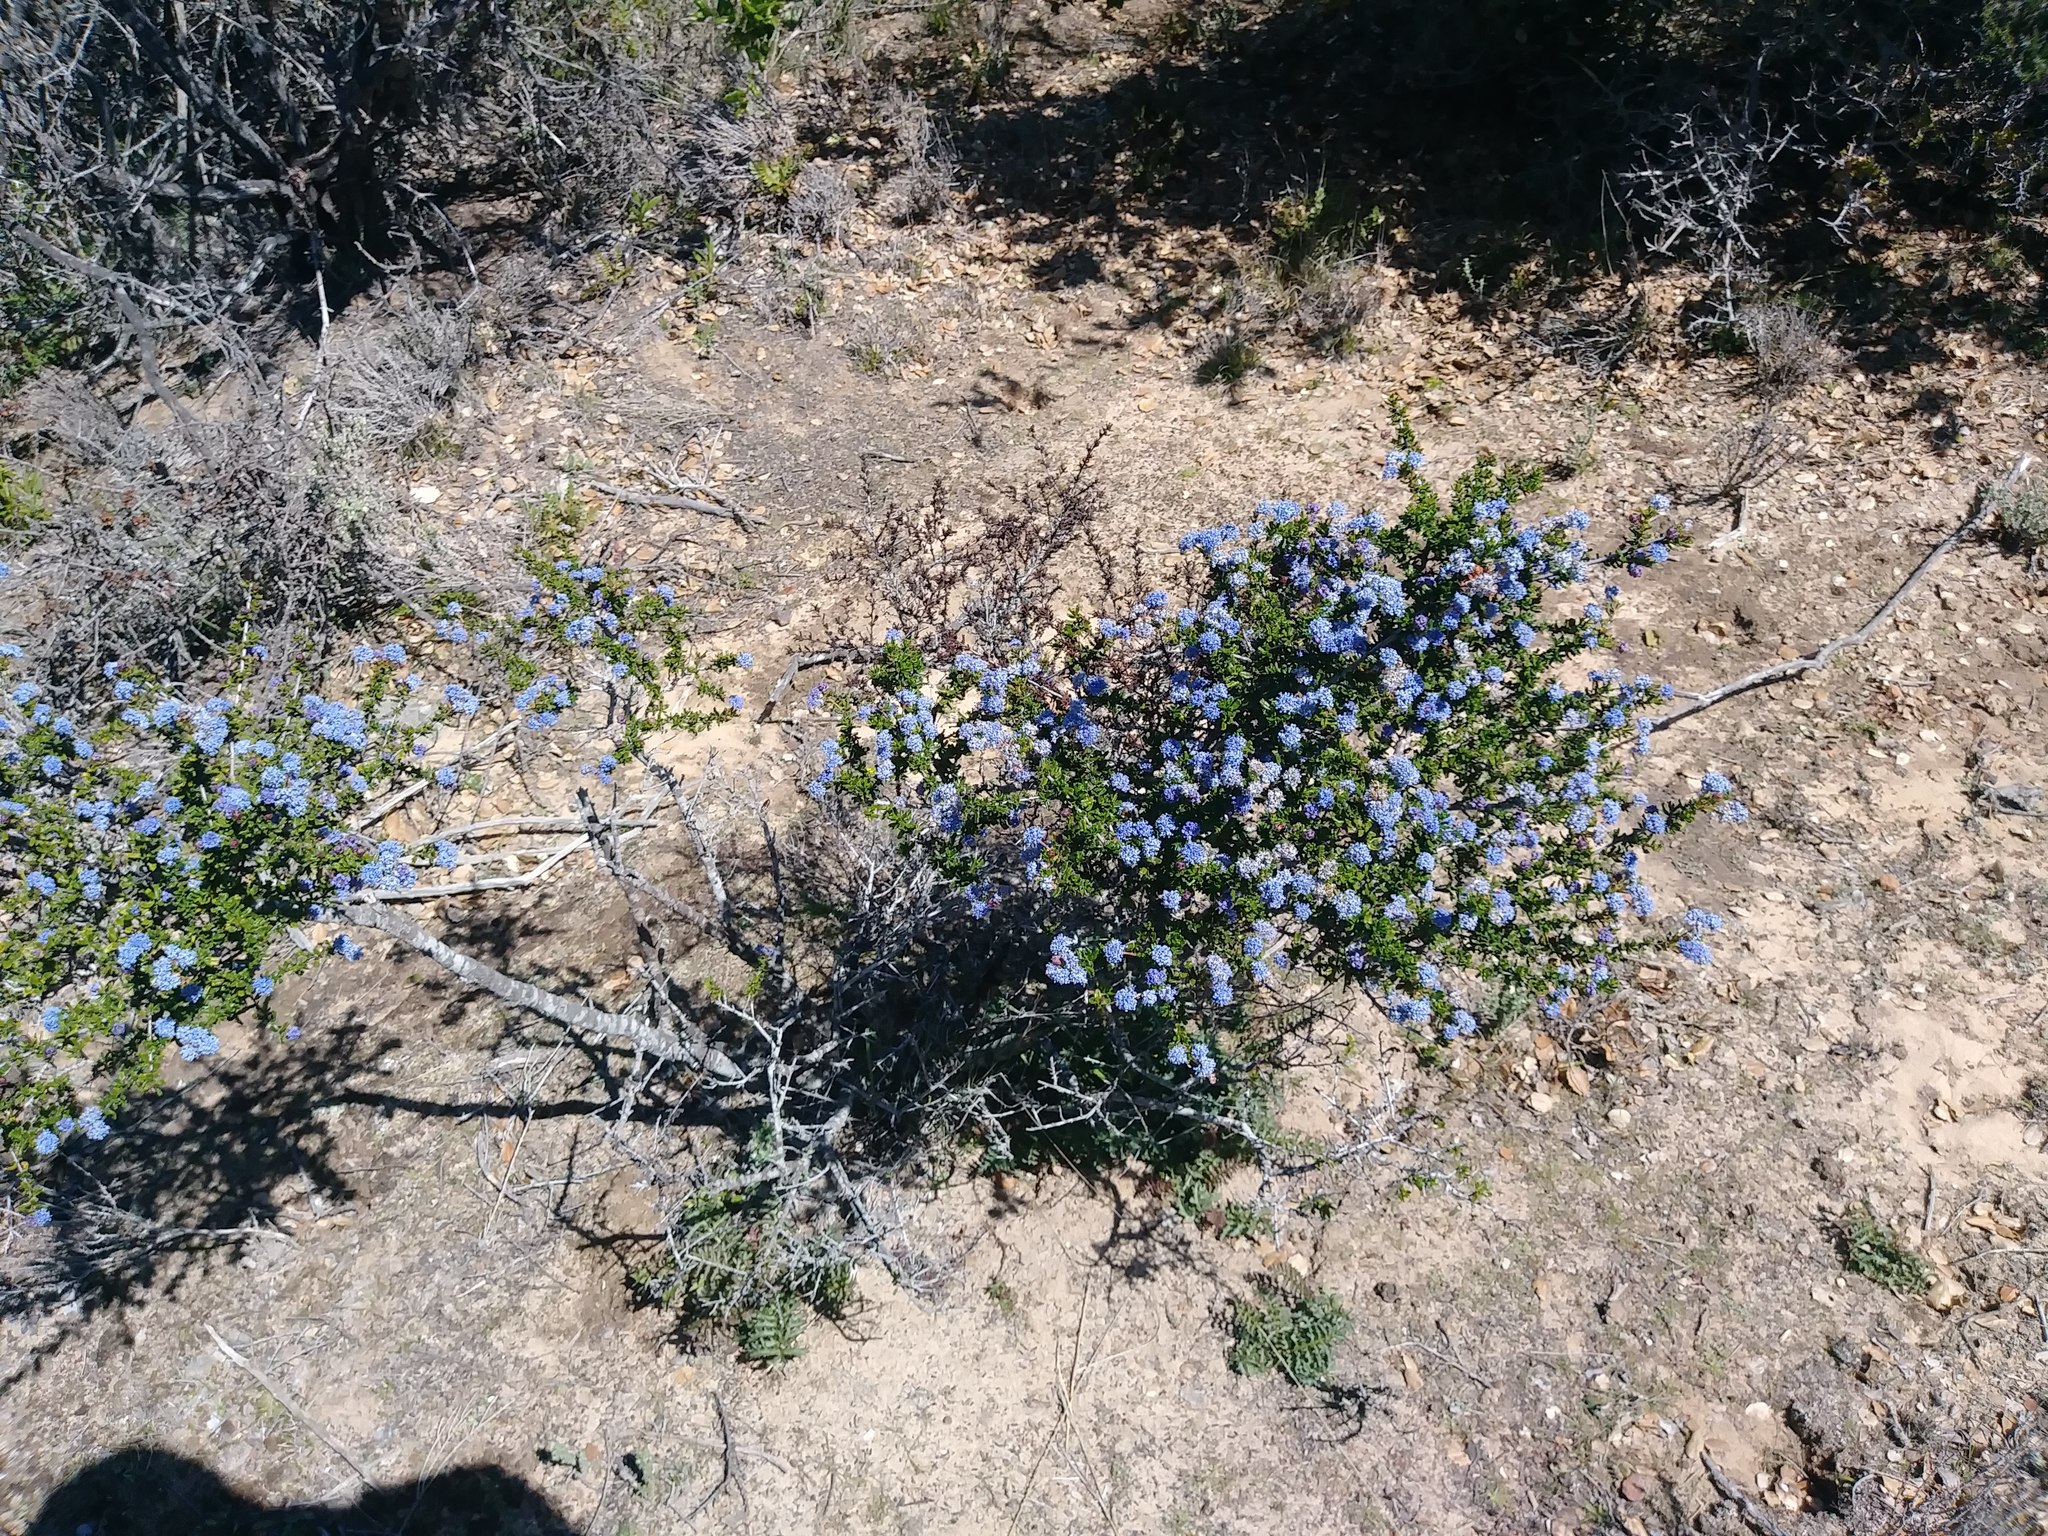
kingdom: Plantae
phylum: Tracheophyta
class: Magnoliopsida
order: Rosales
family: Rhamnaceae
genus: Ceanothus
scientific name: Ceanothus dentatus
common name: Crop-leaf ceanothus
